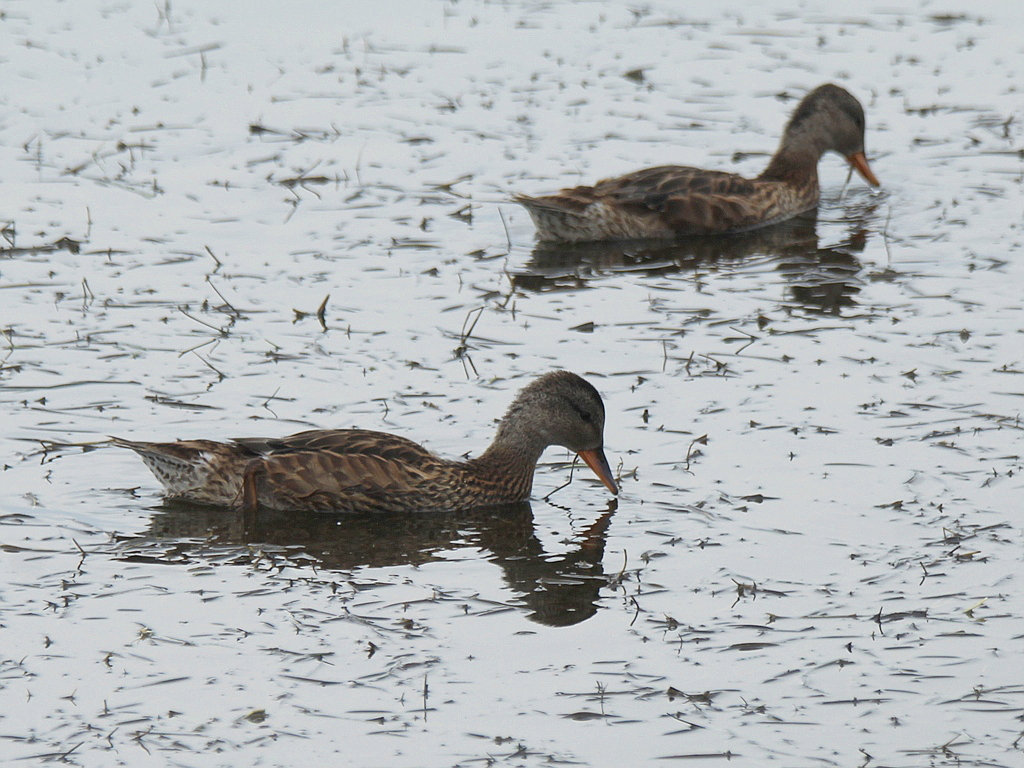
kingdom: Animalia
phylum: Chordata
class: Aves
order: Anseriformes
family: Anatidae
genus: Mareca
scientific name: Mareca strepera
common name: Gadwall
